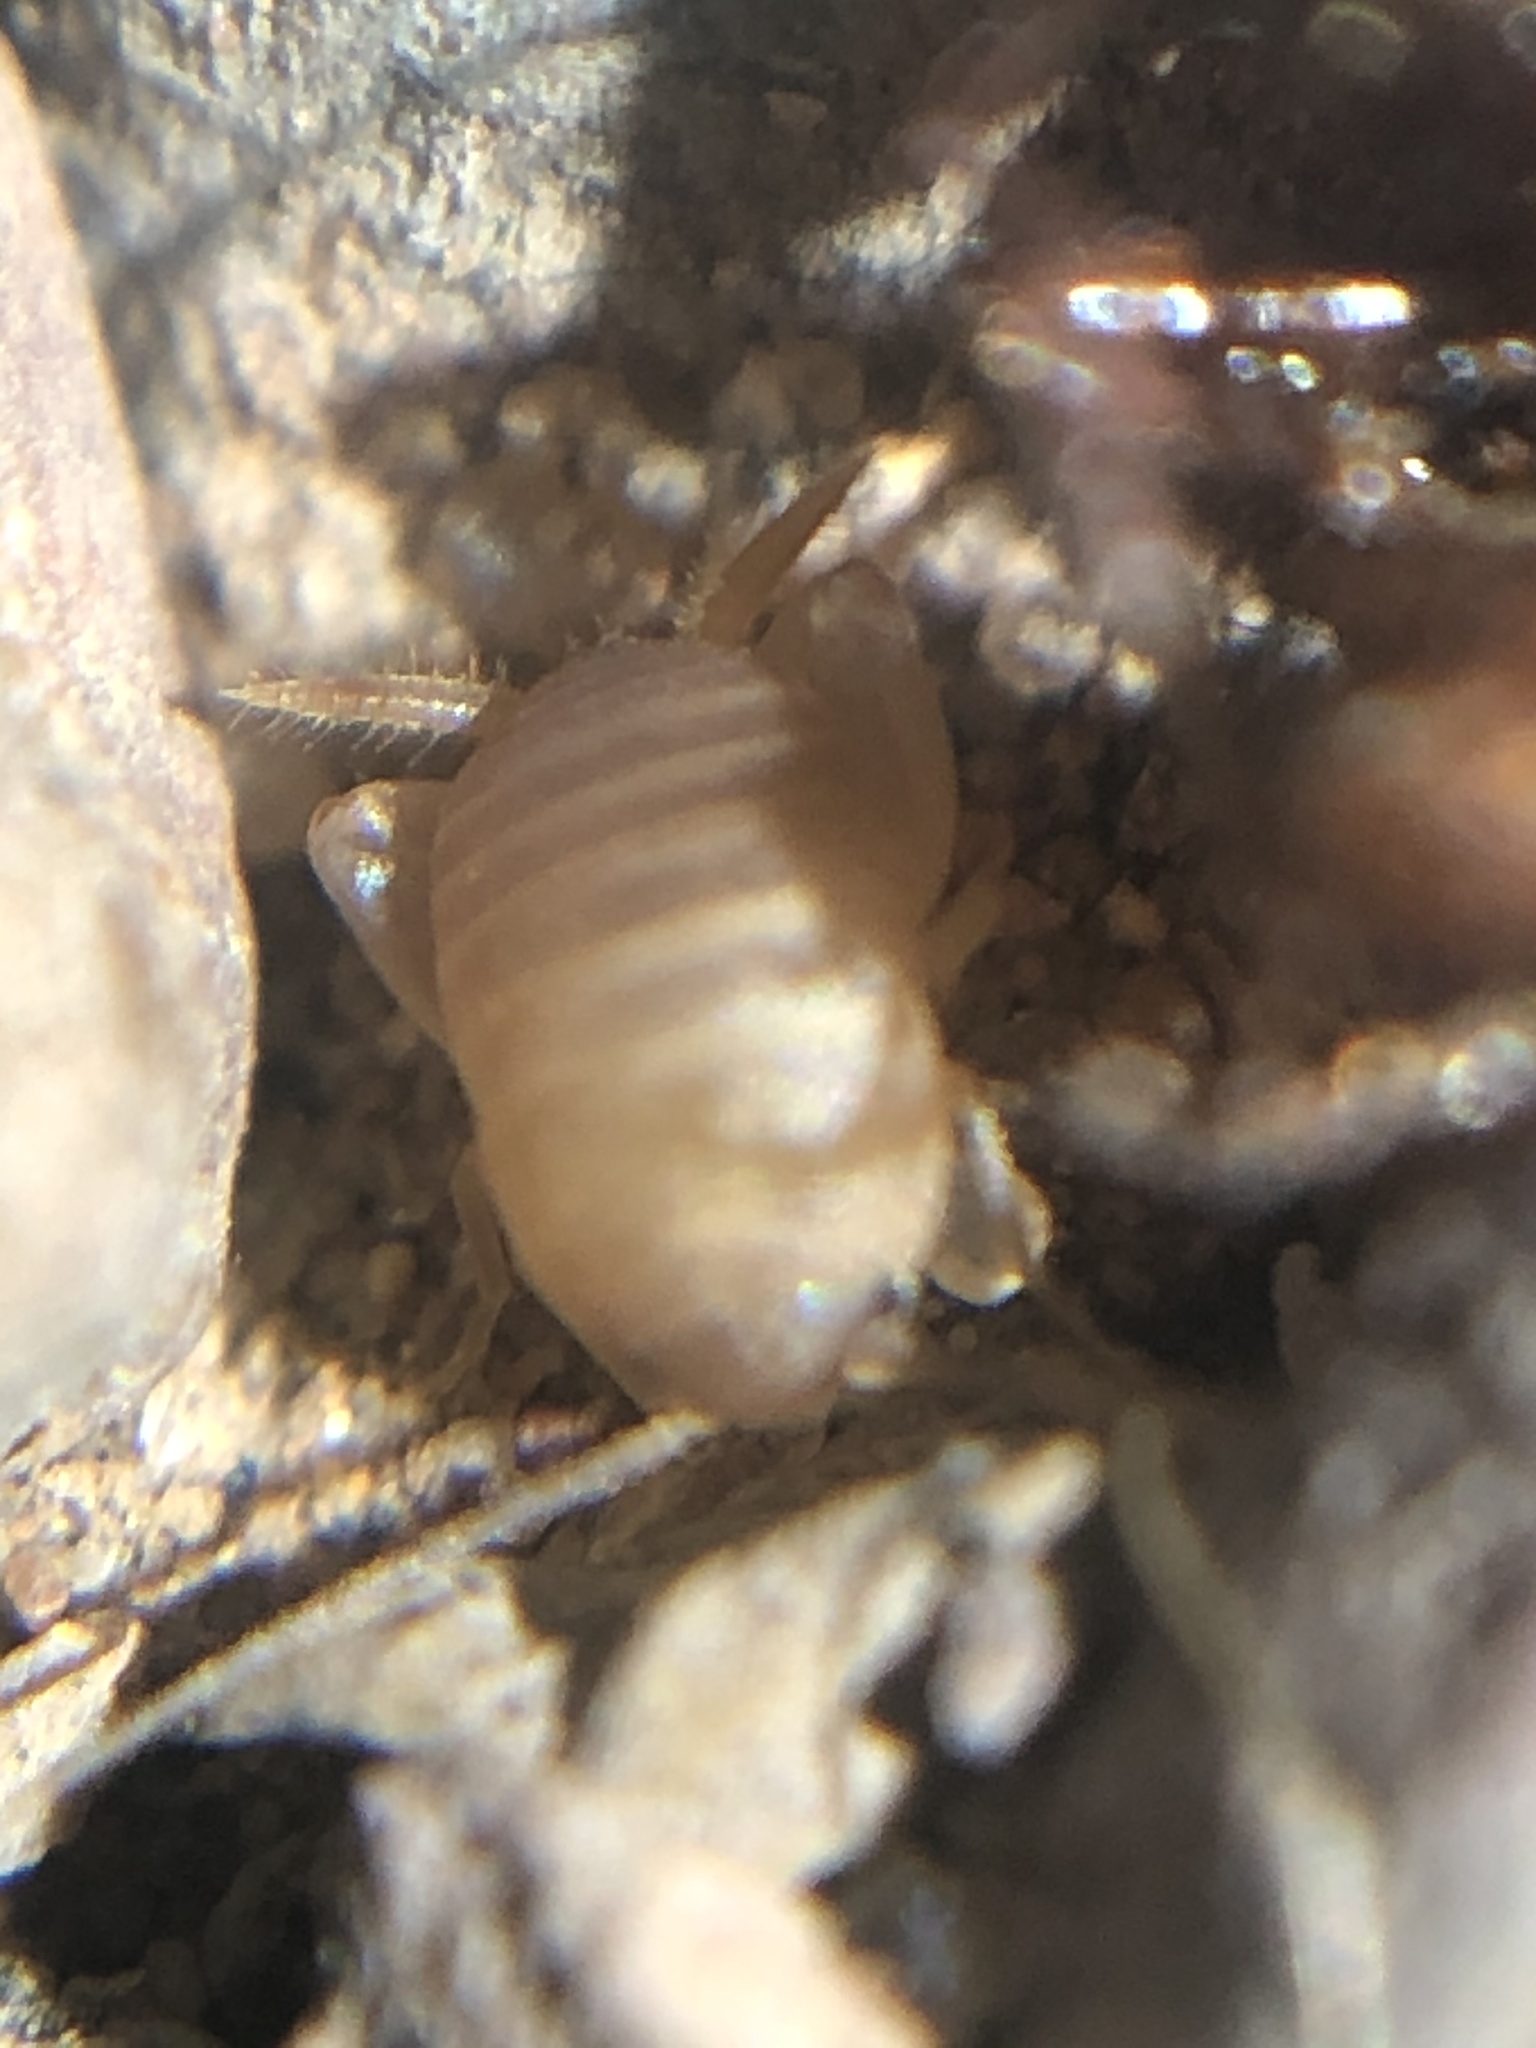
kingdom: Animalia
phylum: Arthropoda
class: Insecta
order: Orthoptera
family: Myrmecophilidae
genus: Myrmecophilus
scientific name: Myrmecophilus nebrascensis
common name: Nebraska ant cricket
